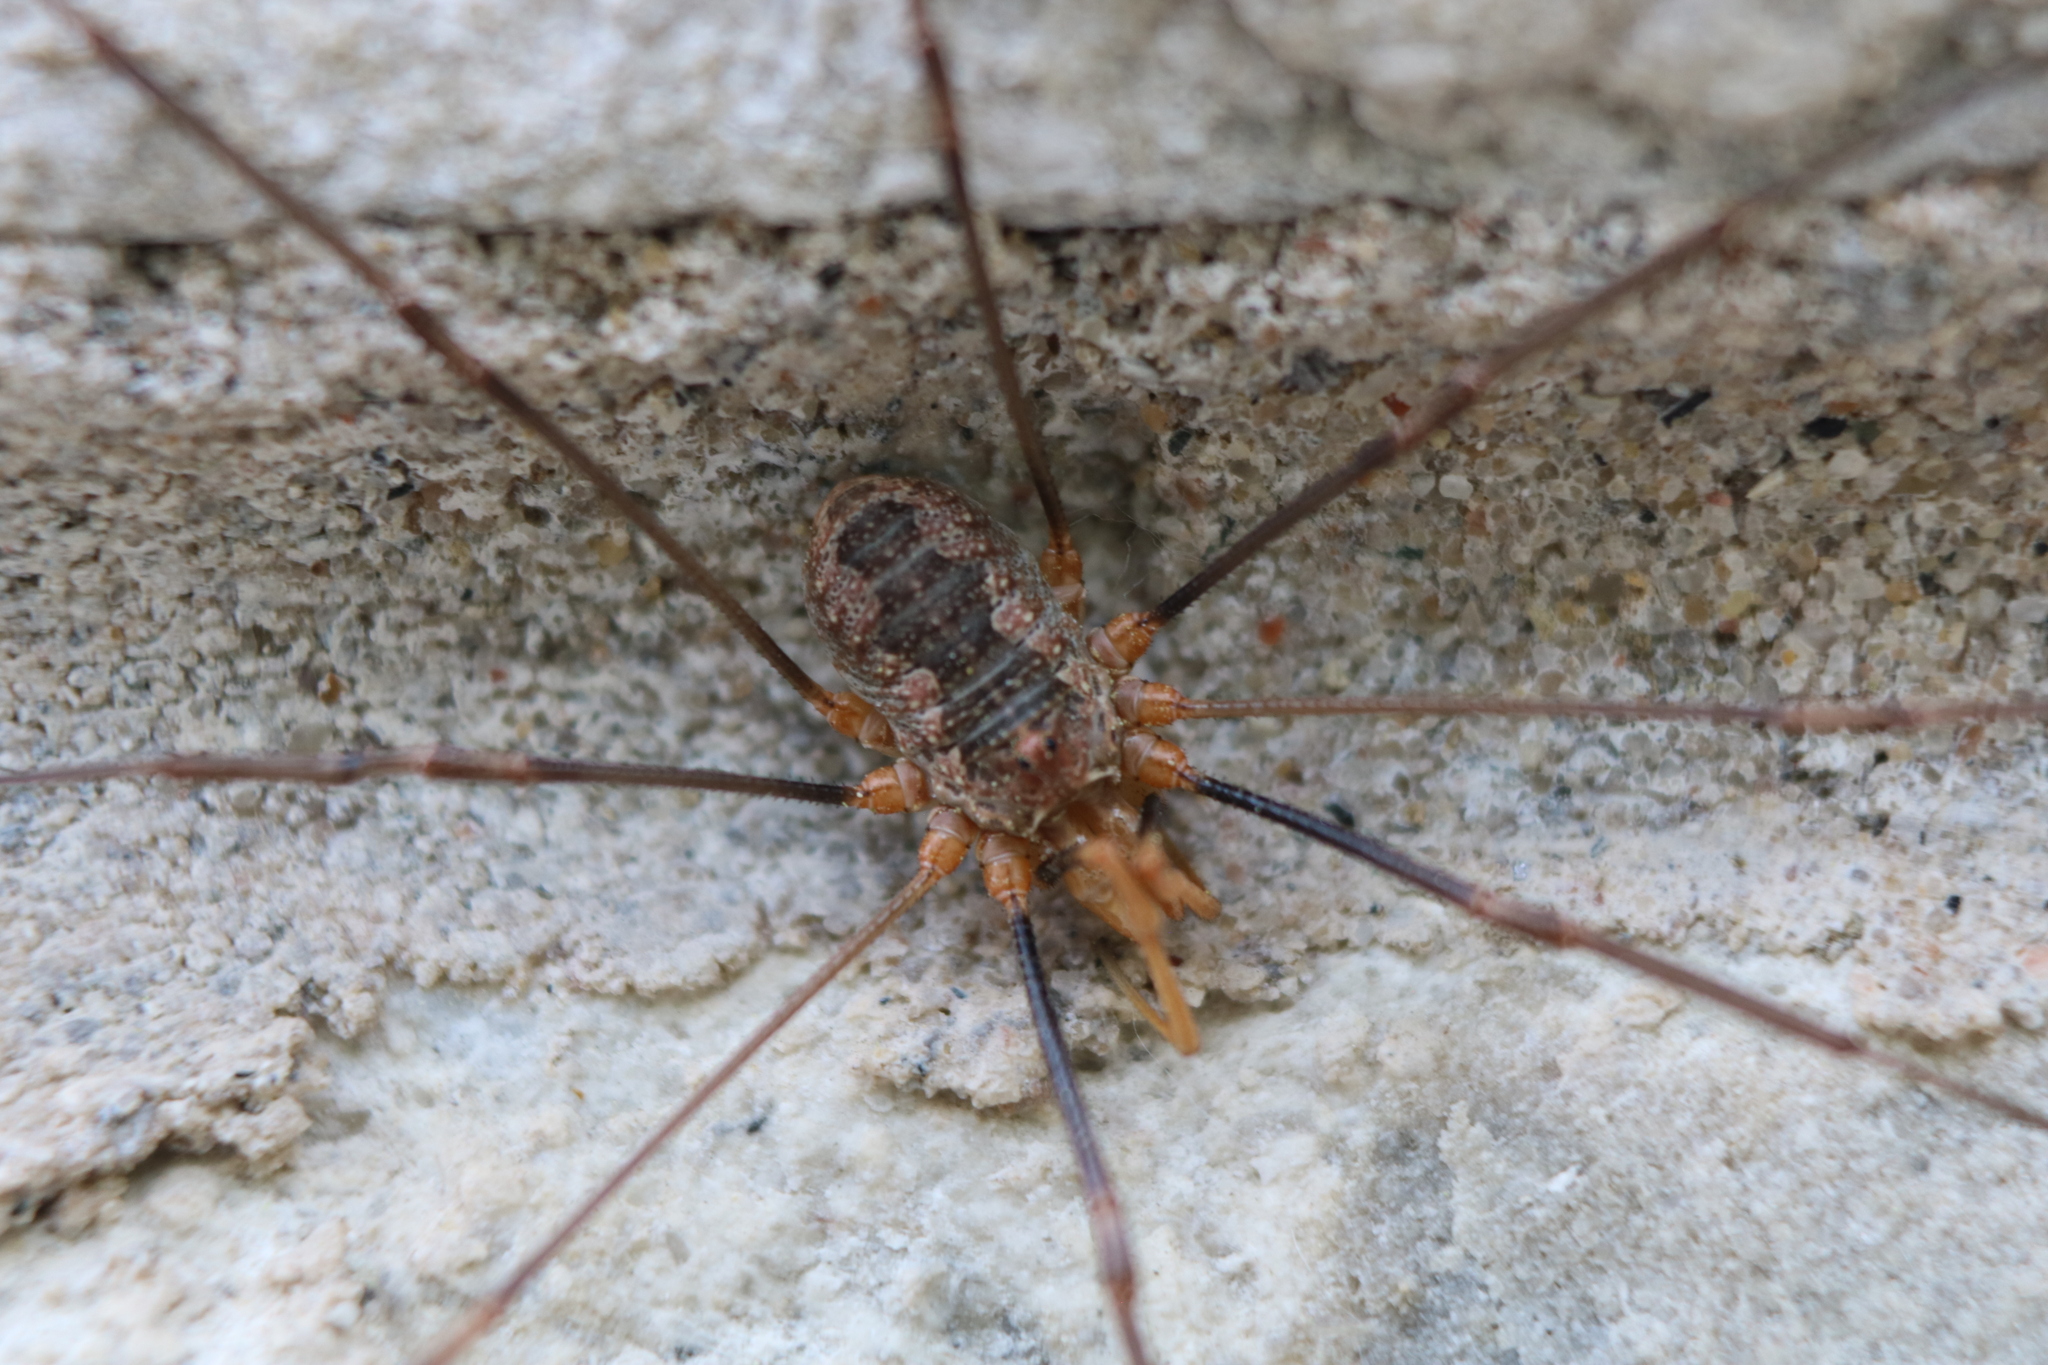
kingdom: Animalia
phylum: Arthropoda
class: Arachnida
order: Opiliones
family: Phalangiidae
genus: Phalangium
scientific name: Phalangium opilio
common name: Daddy longleg
